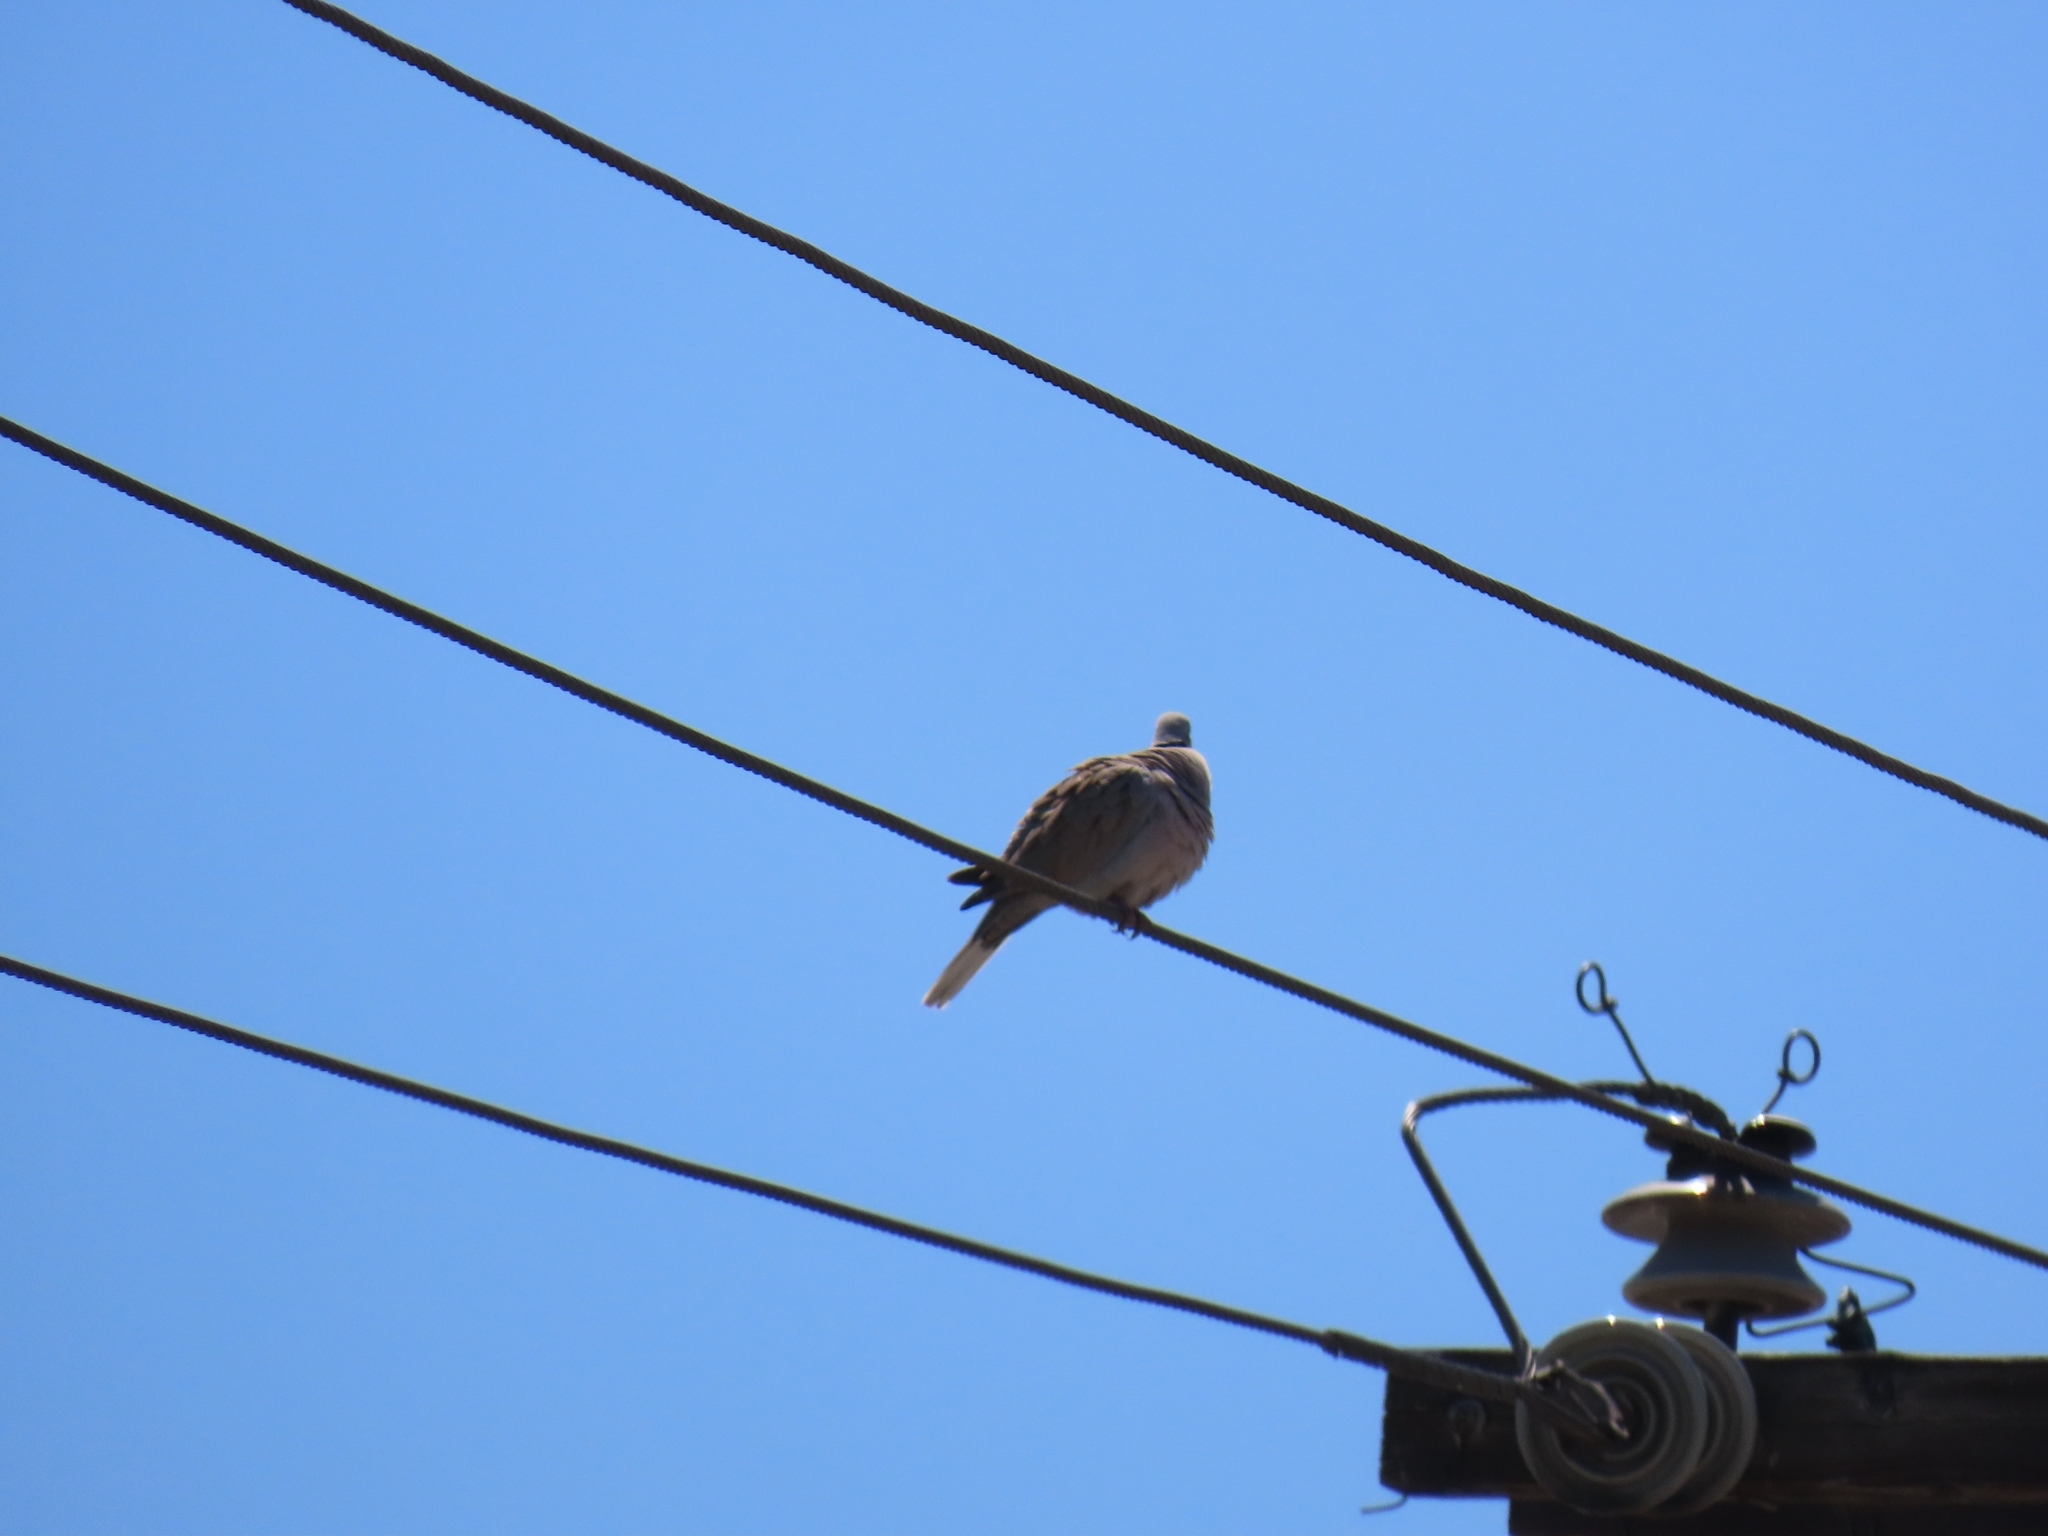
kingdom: Animalia
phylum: Chordata
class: Aves
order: Columbiformes
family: Columbidae
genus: Streptopelia
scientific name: Streptopelia decaocto
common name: Eurasian collared dove
